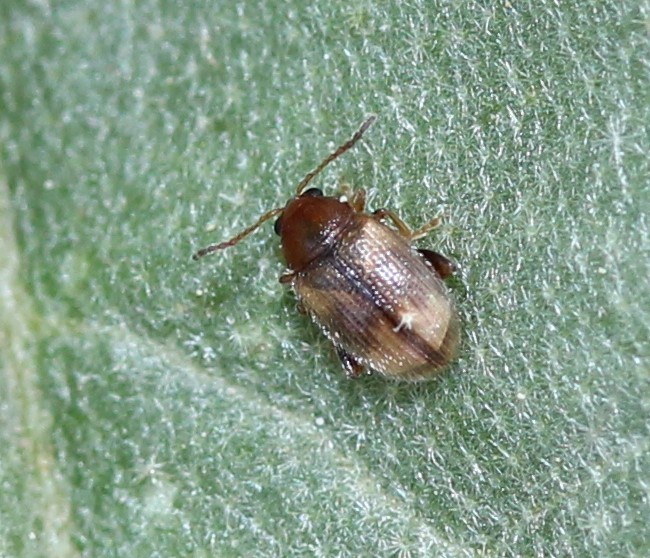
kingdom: Animalia
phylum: Arthropoda
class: Insecta
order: Coleoptera
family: Chrysomelidae
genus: Epitrix
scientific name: Epitrix hirtipennis
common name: Tobacco flea beetle
